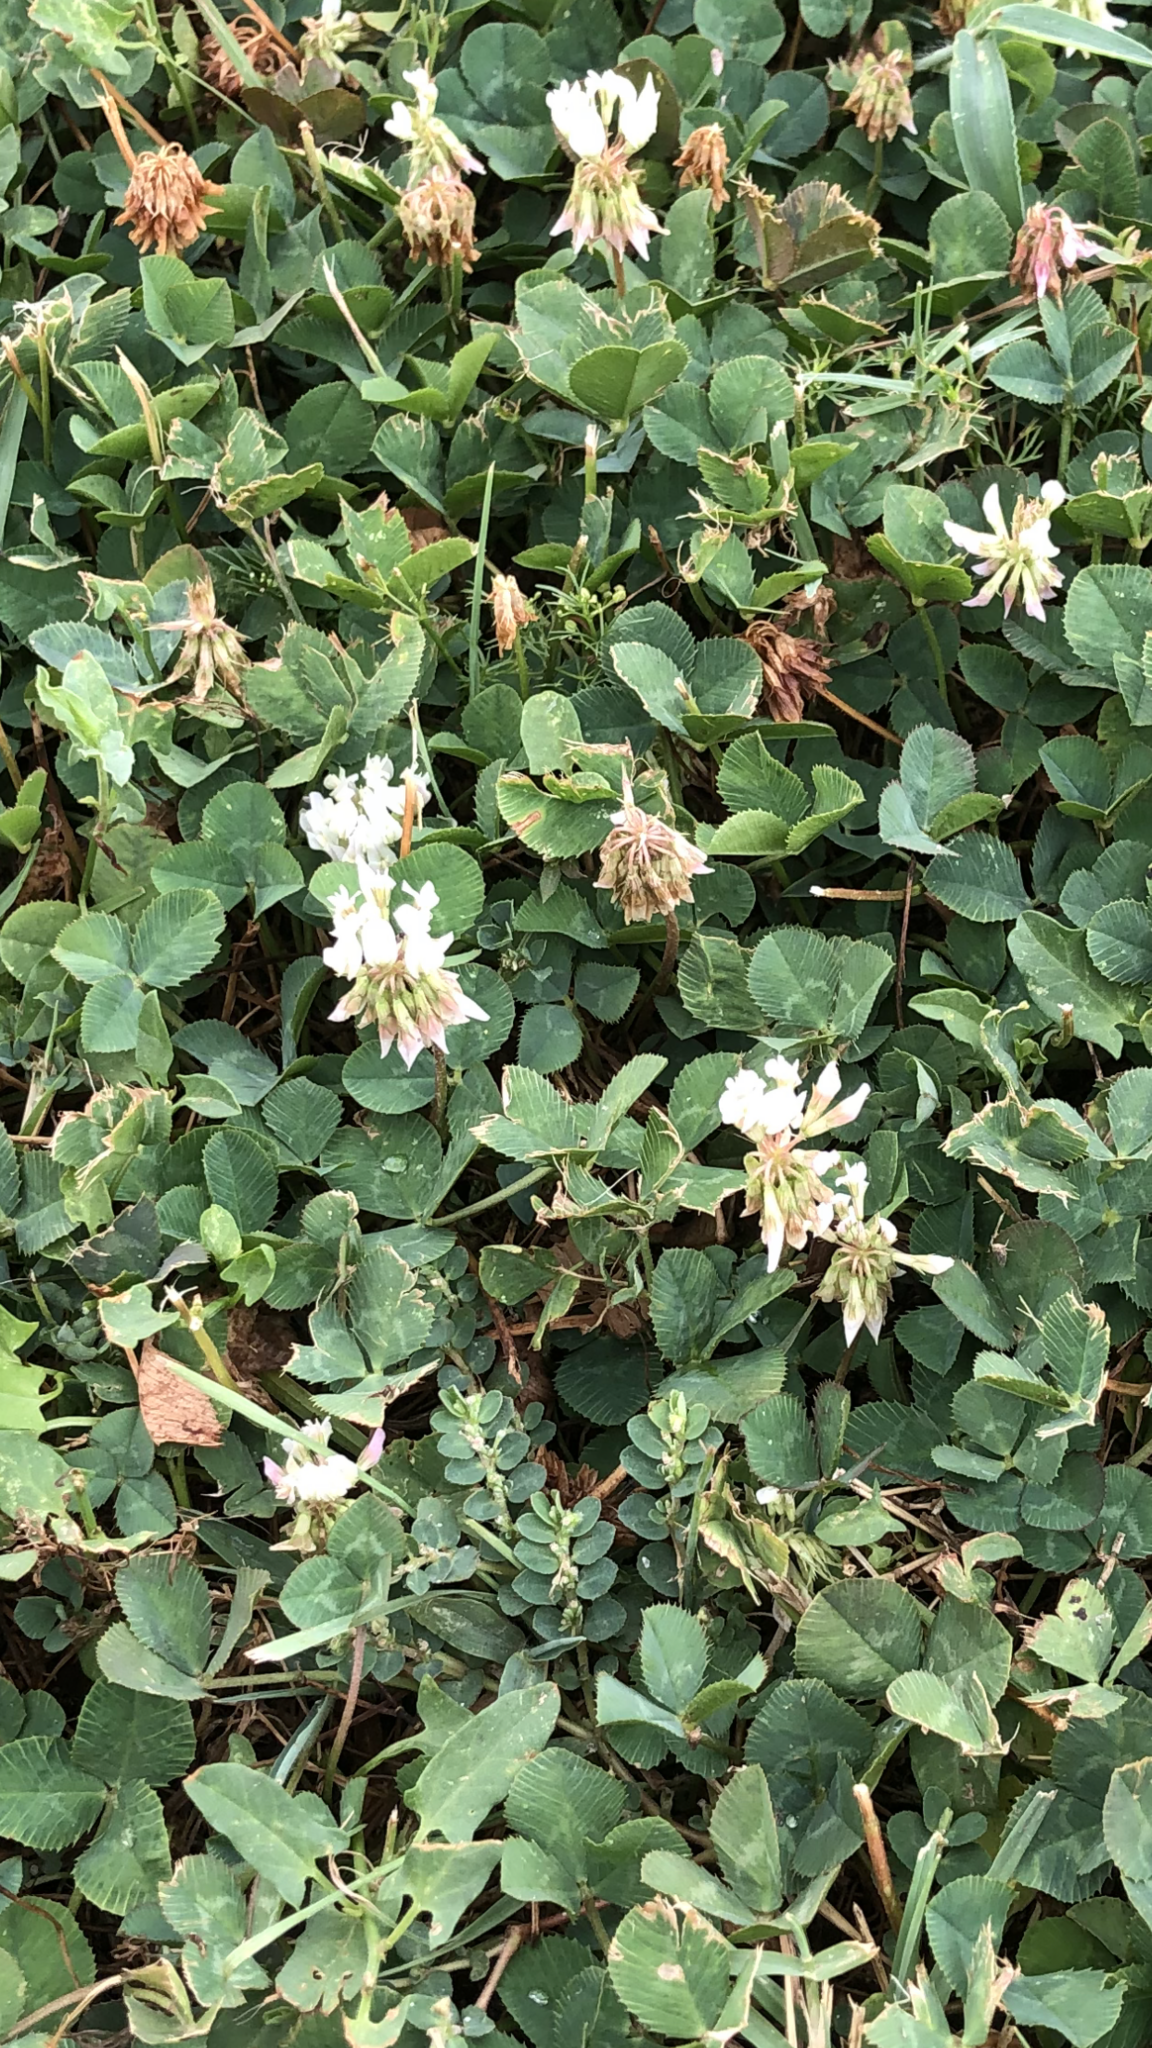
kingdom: Plantae
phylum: Tracheophyta
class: Magnoliopsida
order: Fabales
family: Fabaceae
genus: Trifolium
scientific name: Trifolium repens
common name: White clover
